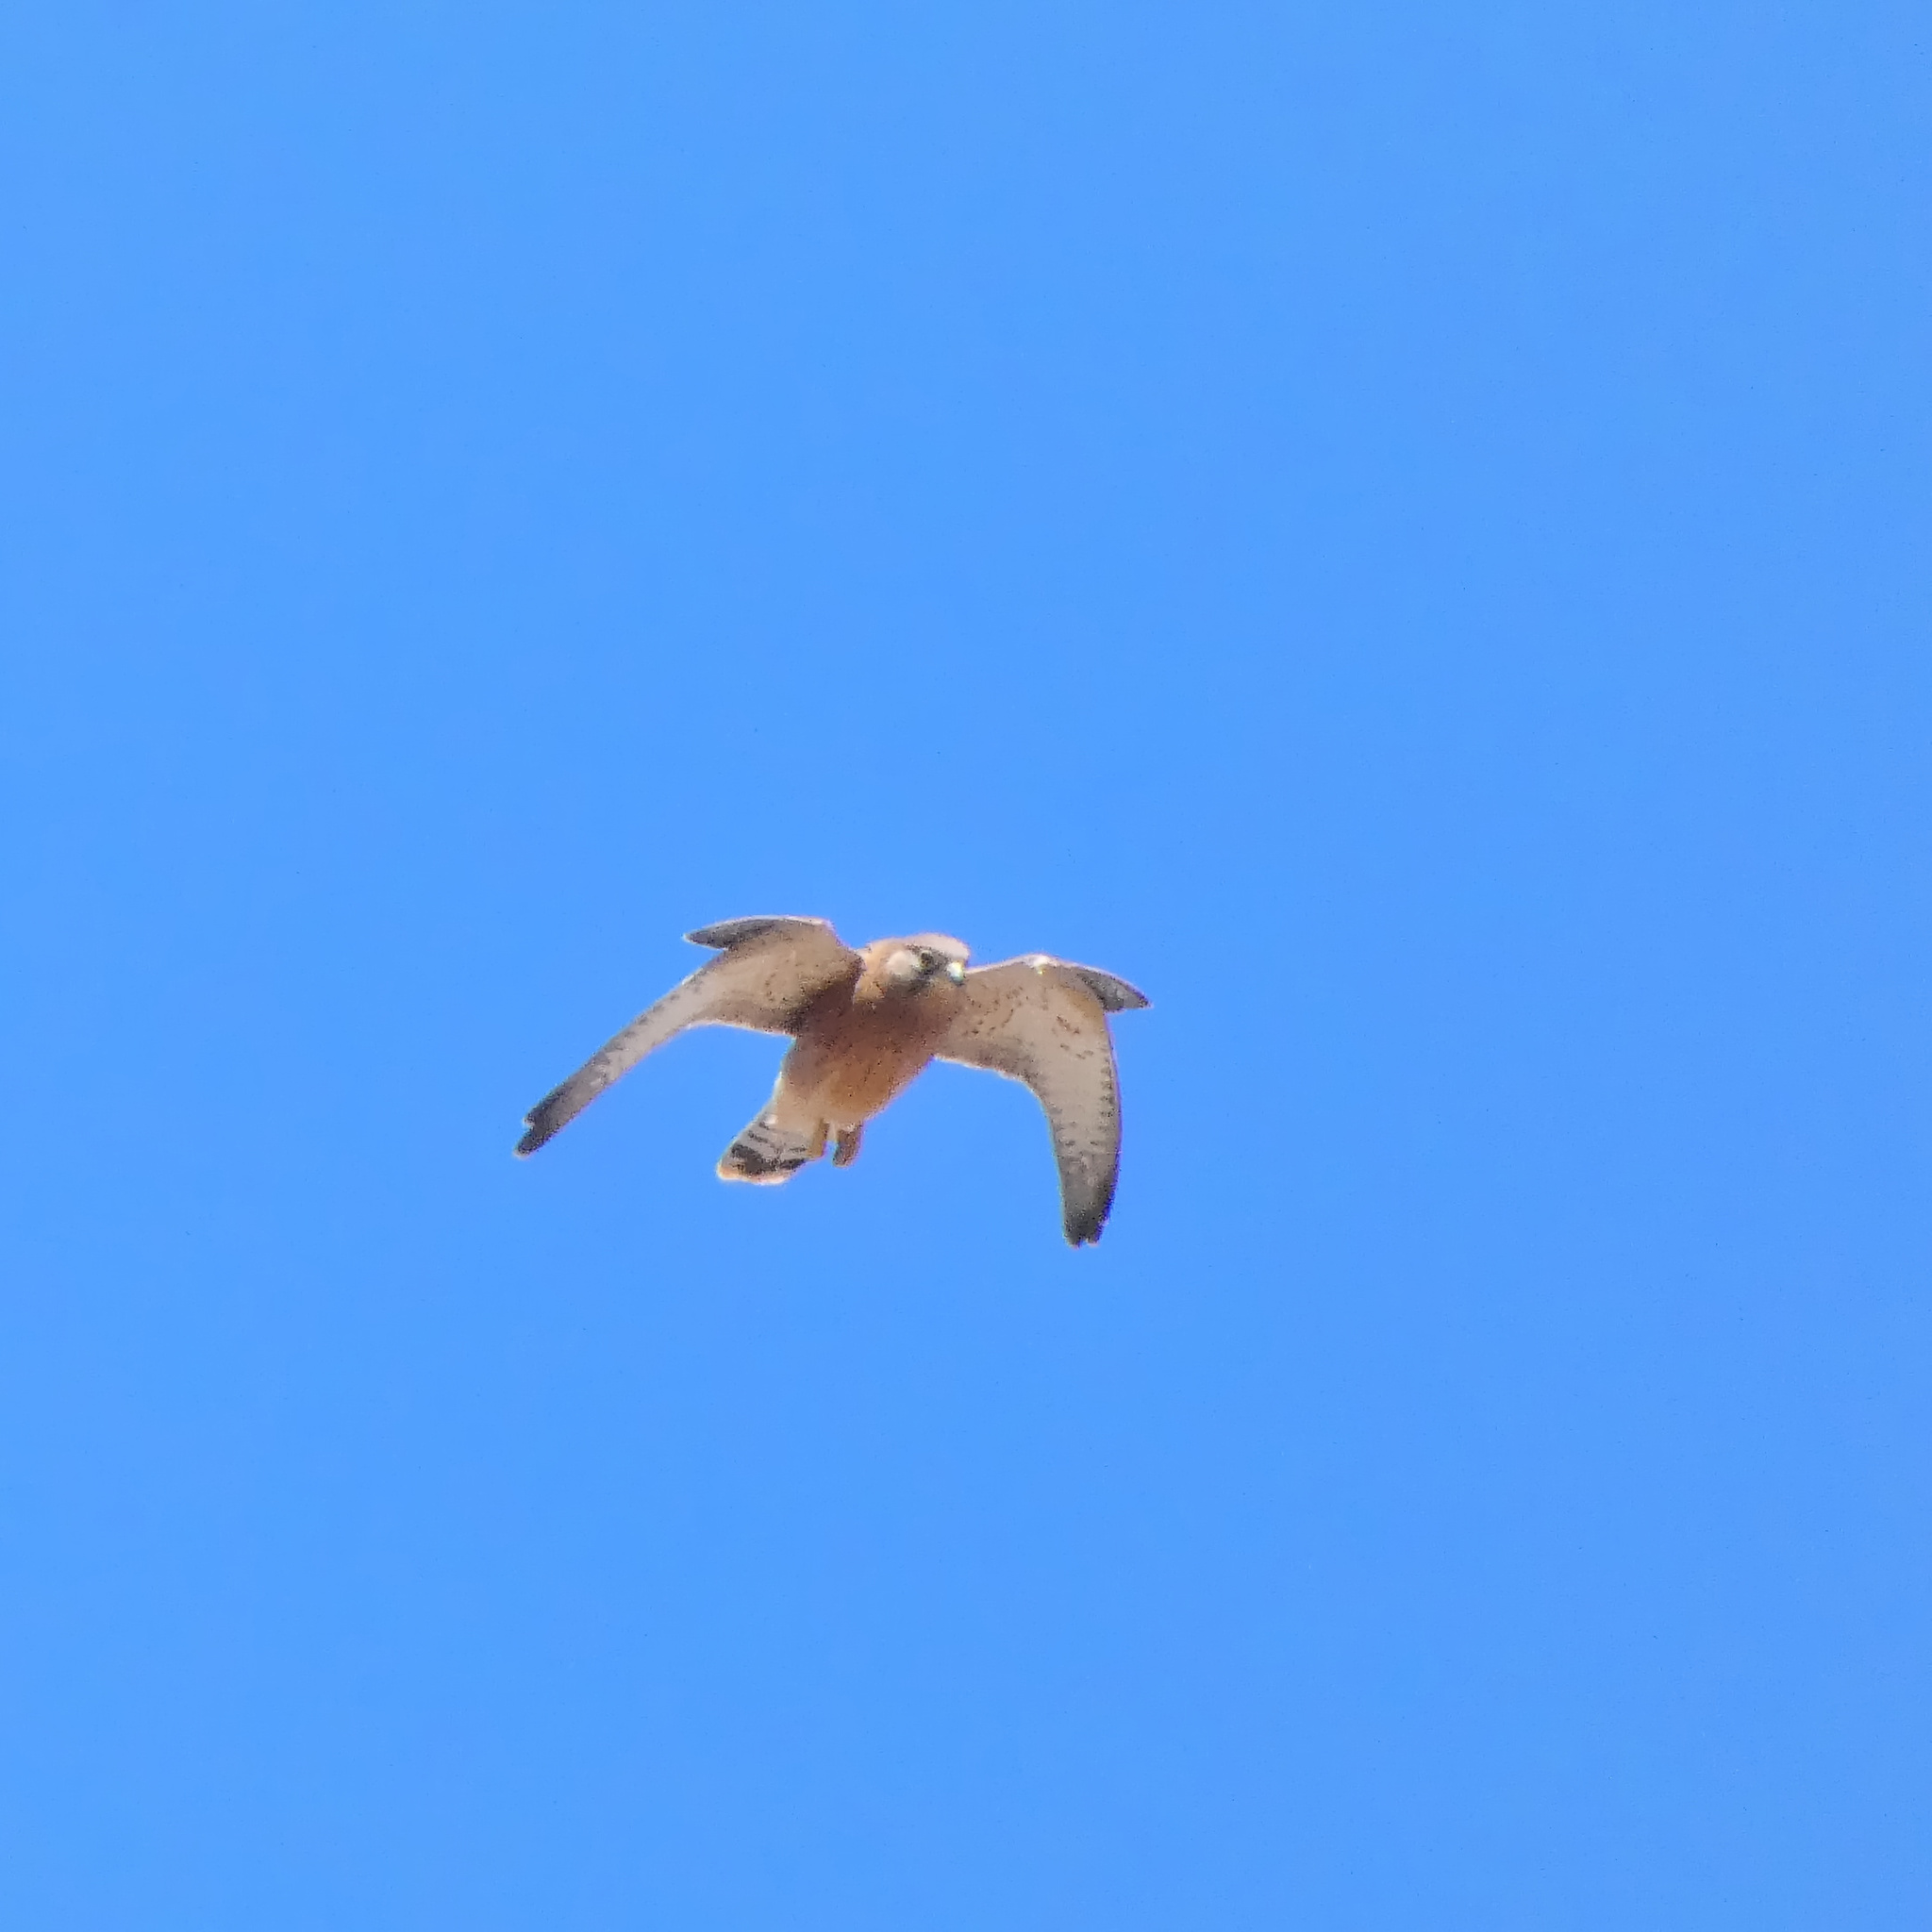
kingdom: Animalia
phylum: Chordata
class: Aves
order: Falconiformes
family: Falconidae
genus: Falco
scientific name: Falco rupicolus
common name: Rock kestrel
